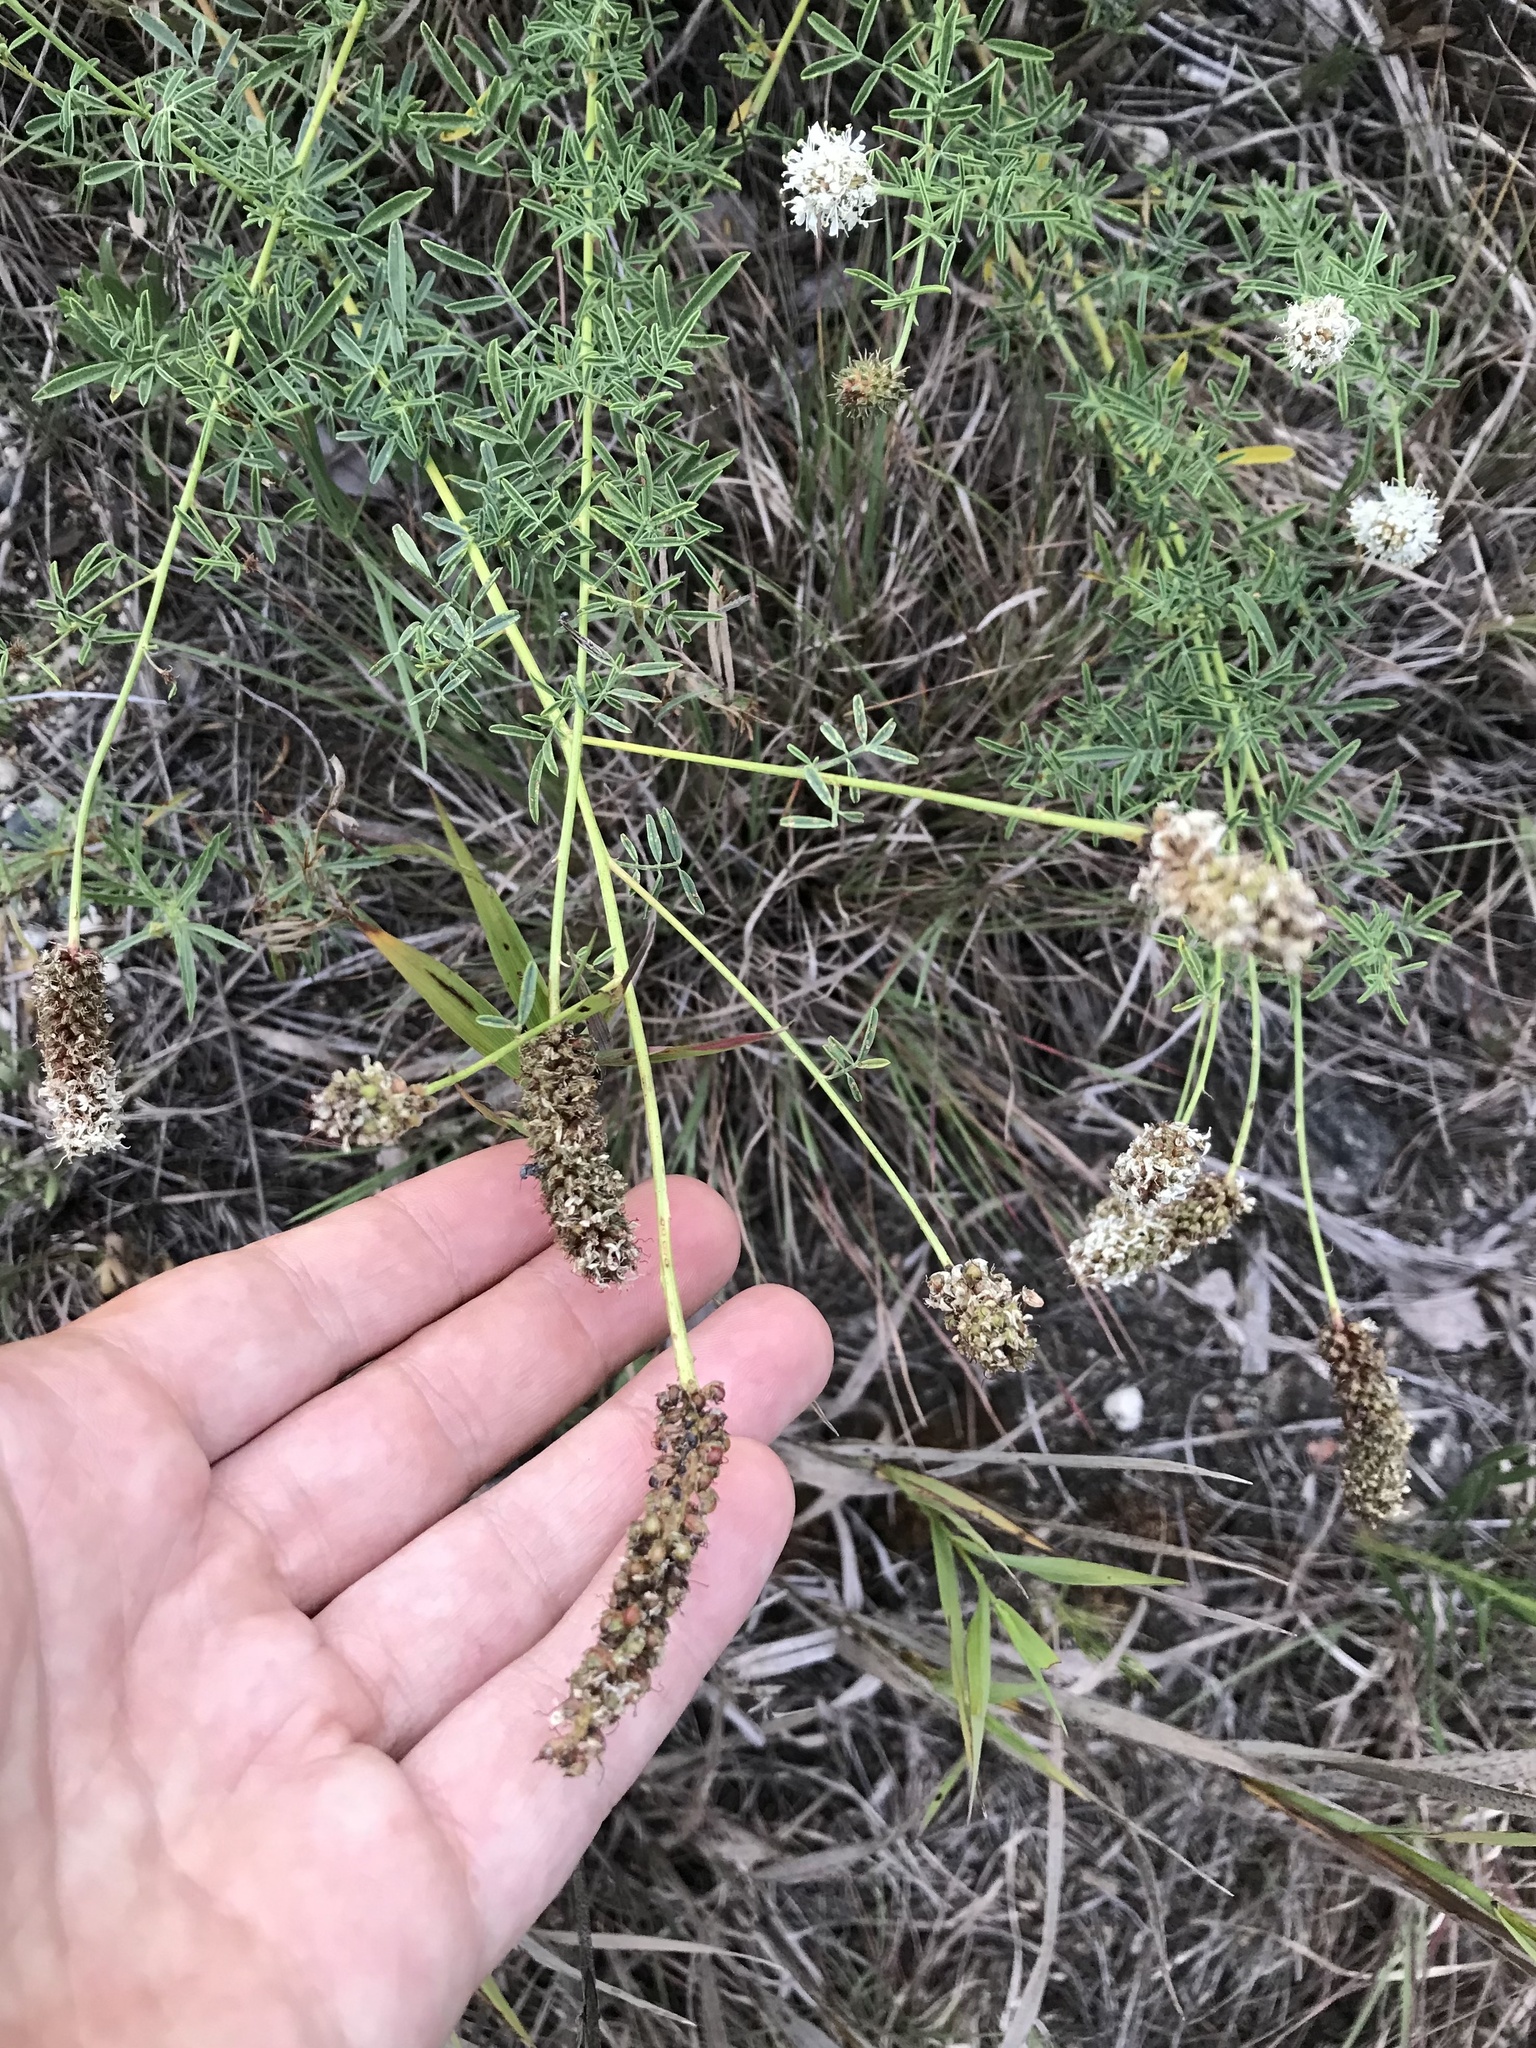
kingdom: Plantae
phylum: Tracheophyta
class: Magnoliopsida
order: Fabales
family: Fabaceae
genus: Dalea
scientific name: Dalea candida
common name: White prairie-clover
